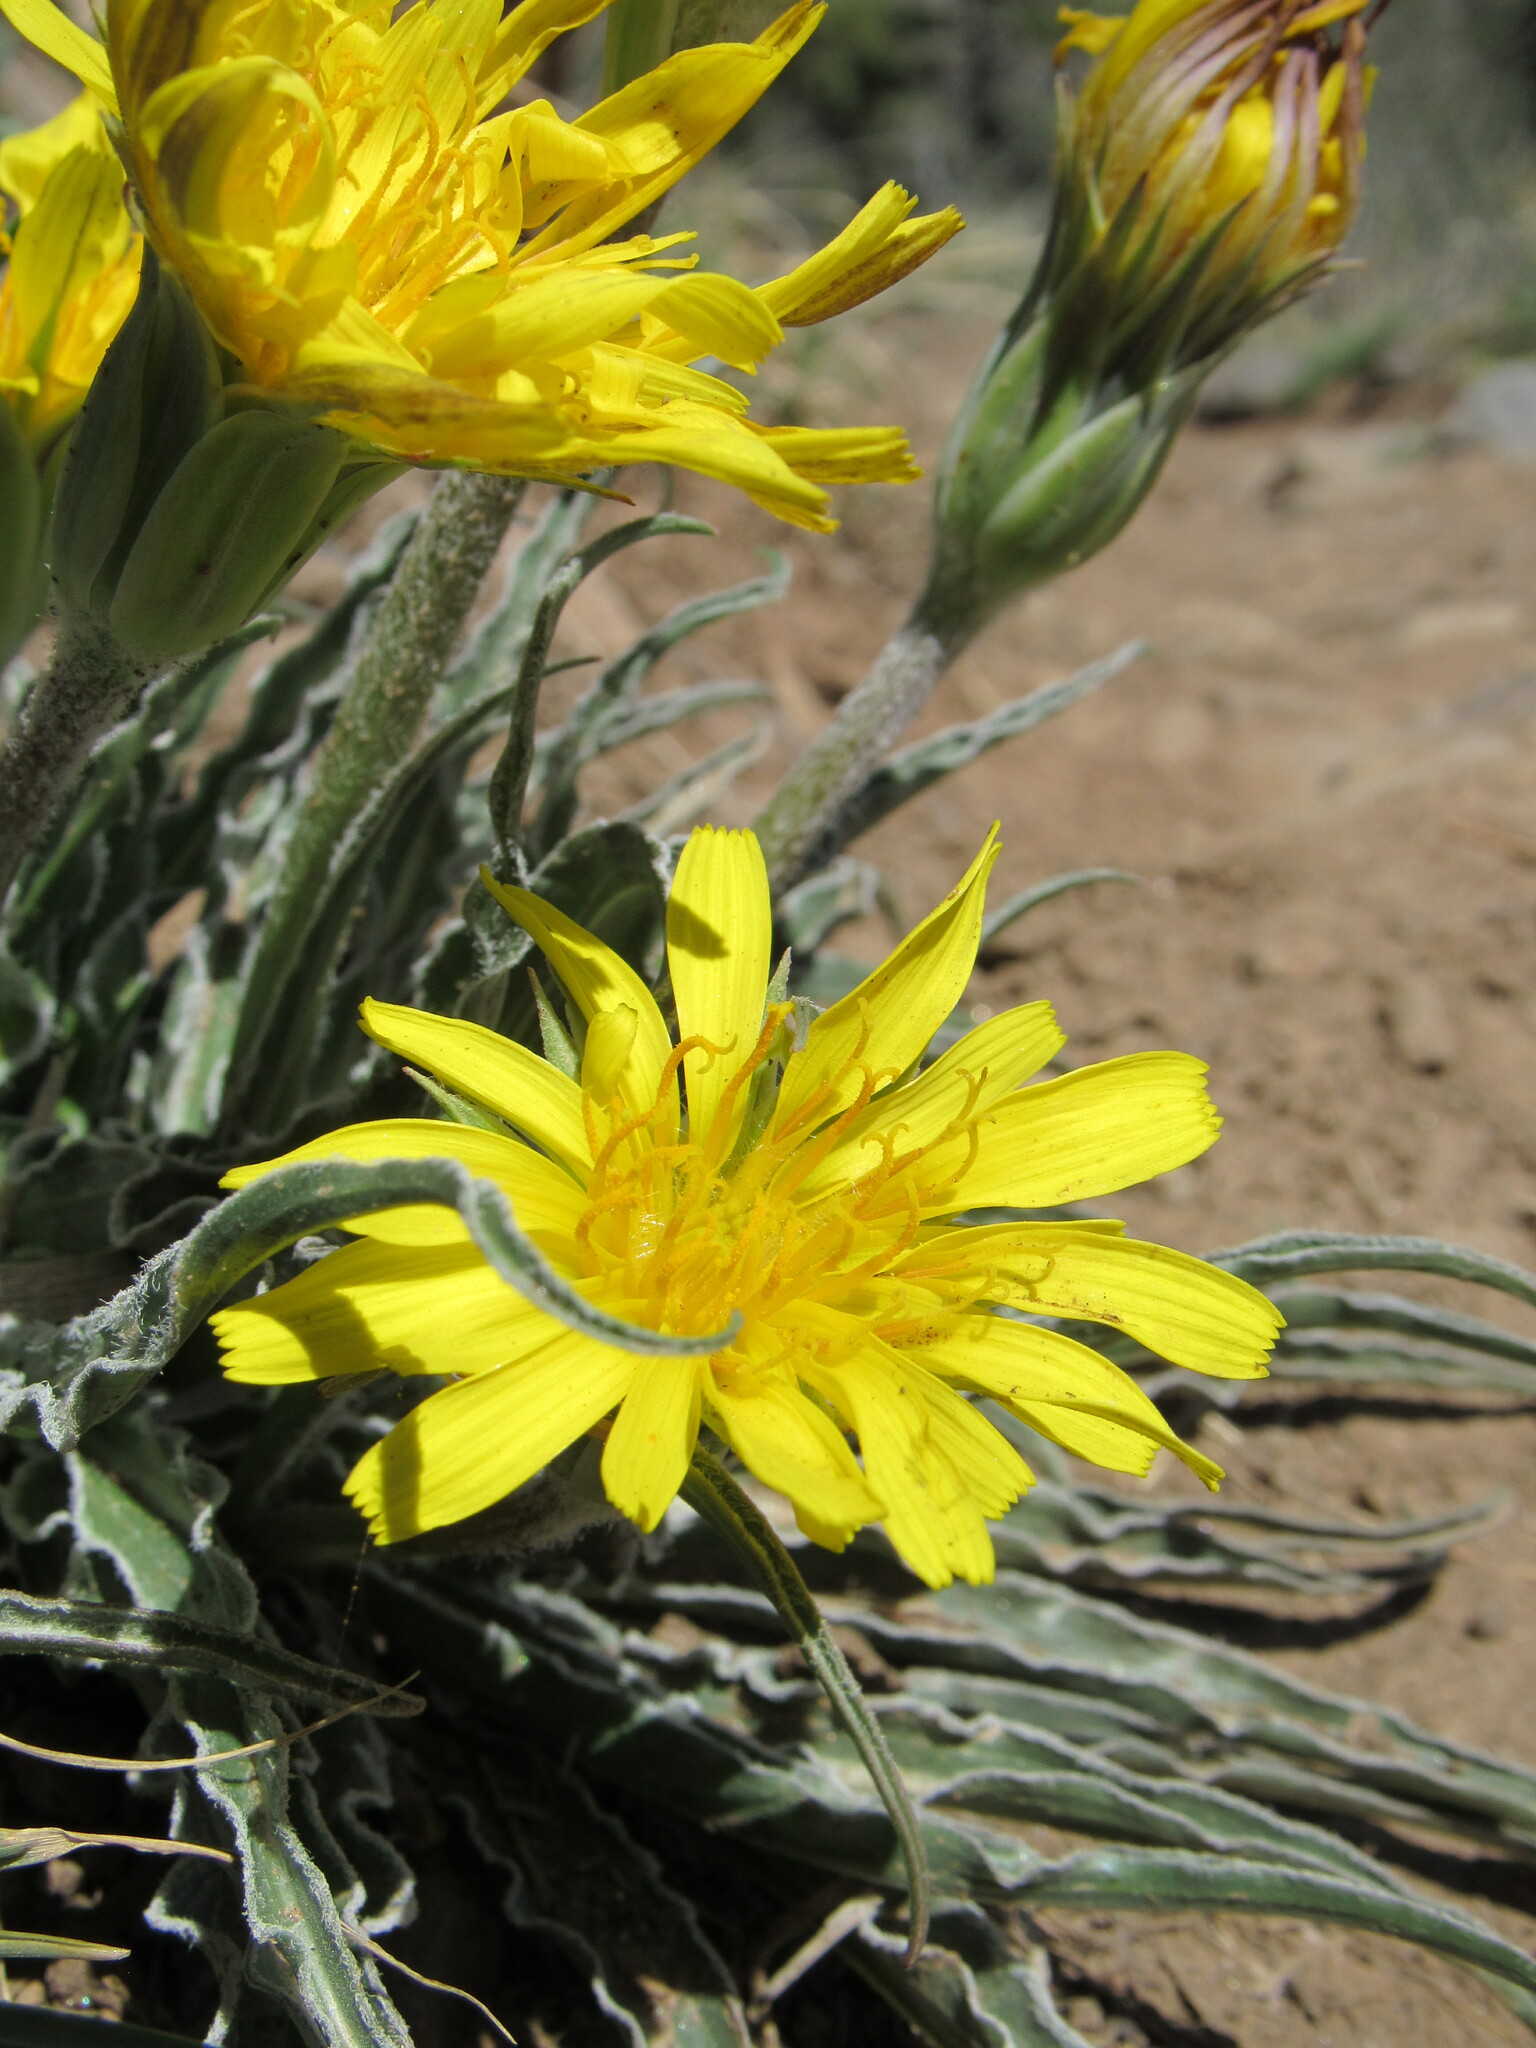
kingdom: Plantae
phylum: Tracheophyta
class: Magnoliopsida
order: Asterales
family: Asteraceae
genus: Microseris
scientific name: Microseris cuspidata
